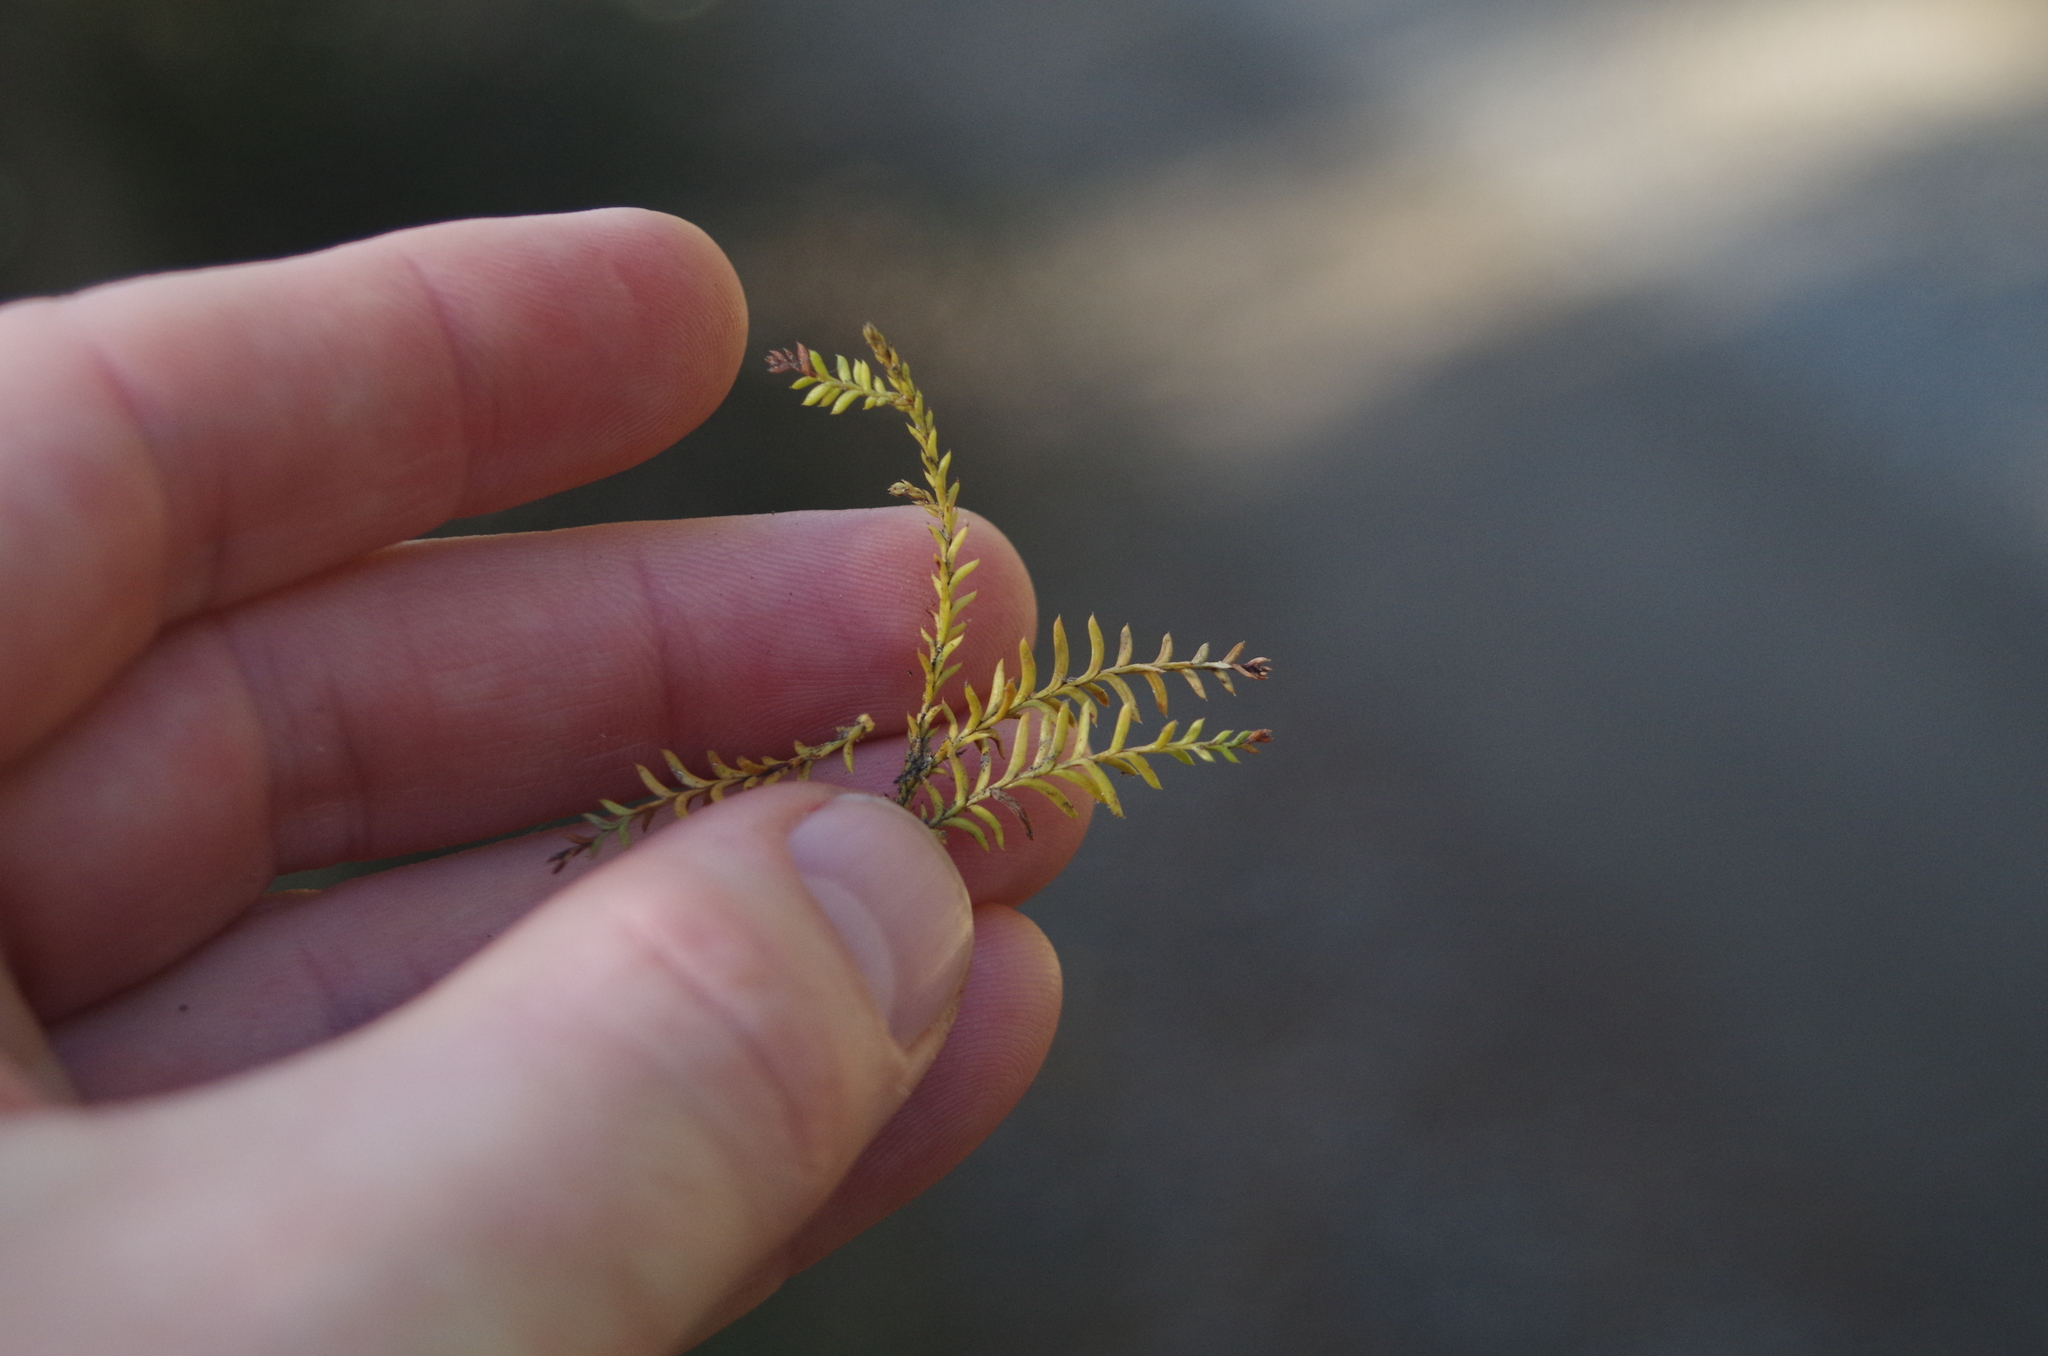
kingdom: Plantae
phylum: Tracheophyta
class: Pinopsida
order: Pinales
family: Podocarpaceae
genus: Dacrycarpus
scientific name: Dacrycarpus dacrydioides
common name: White pine
